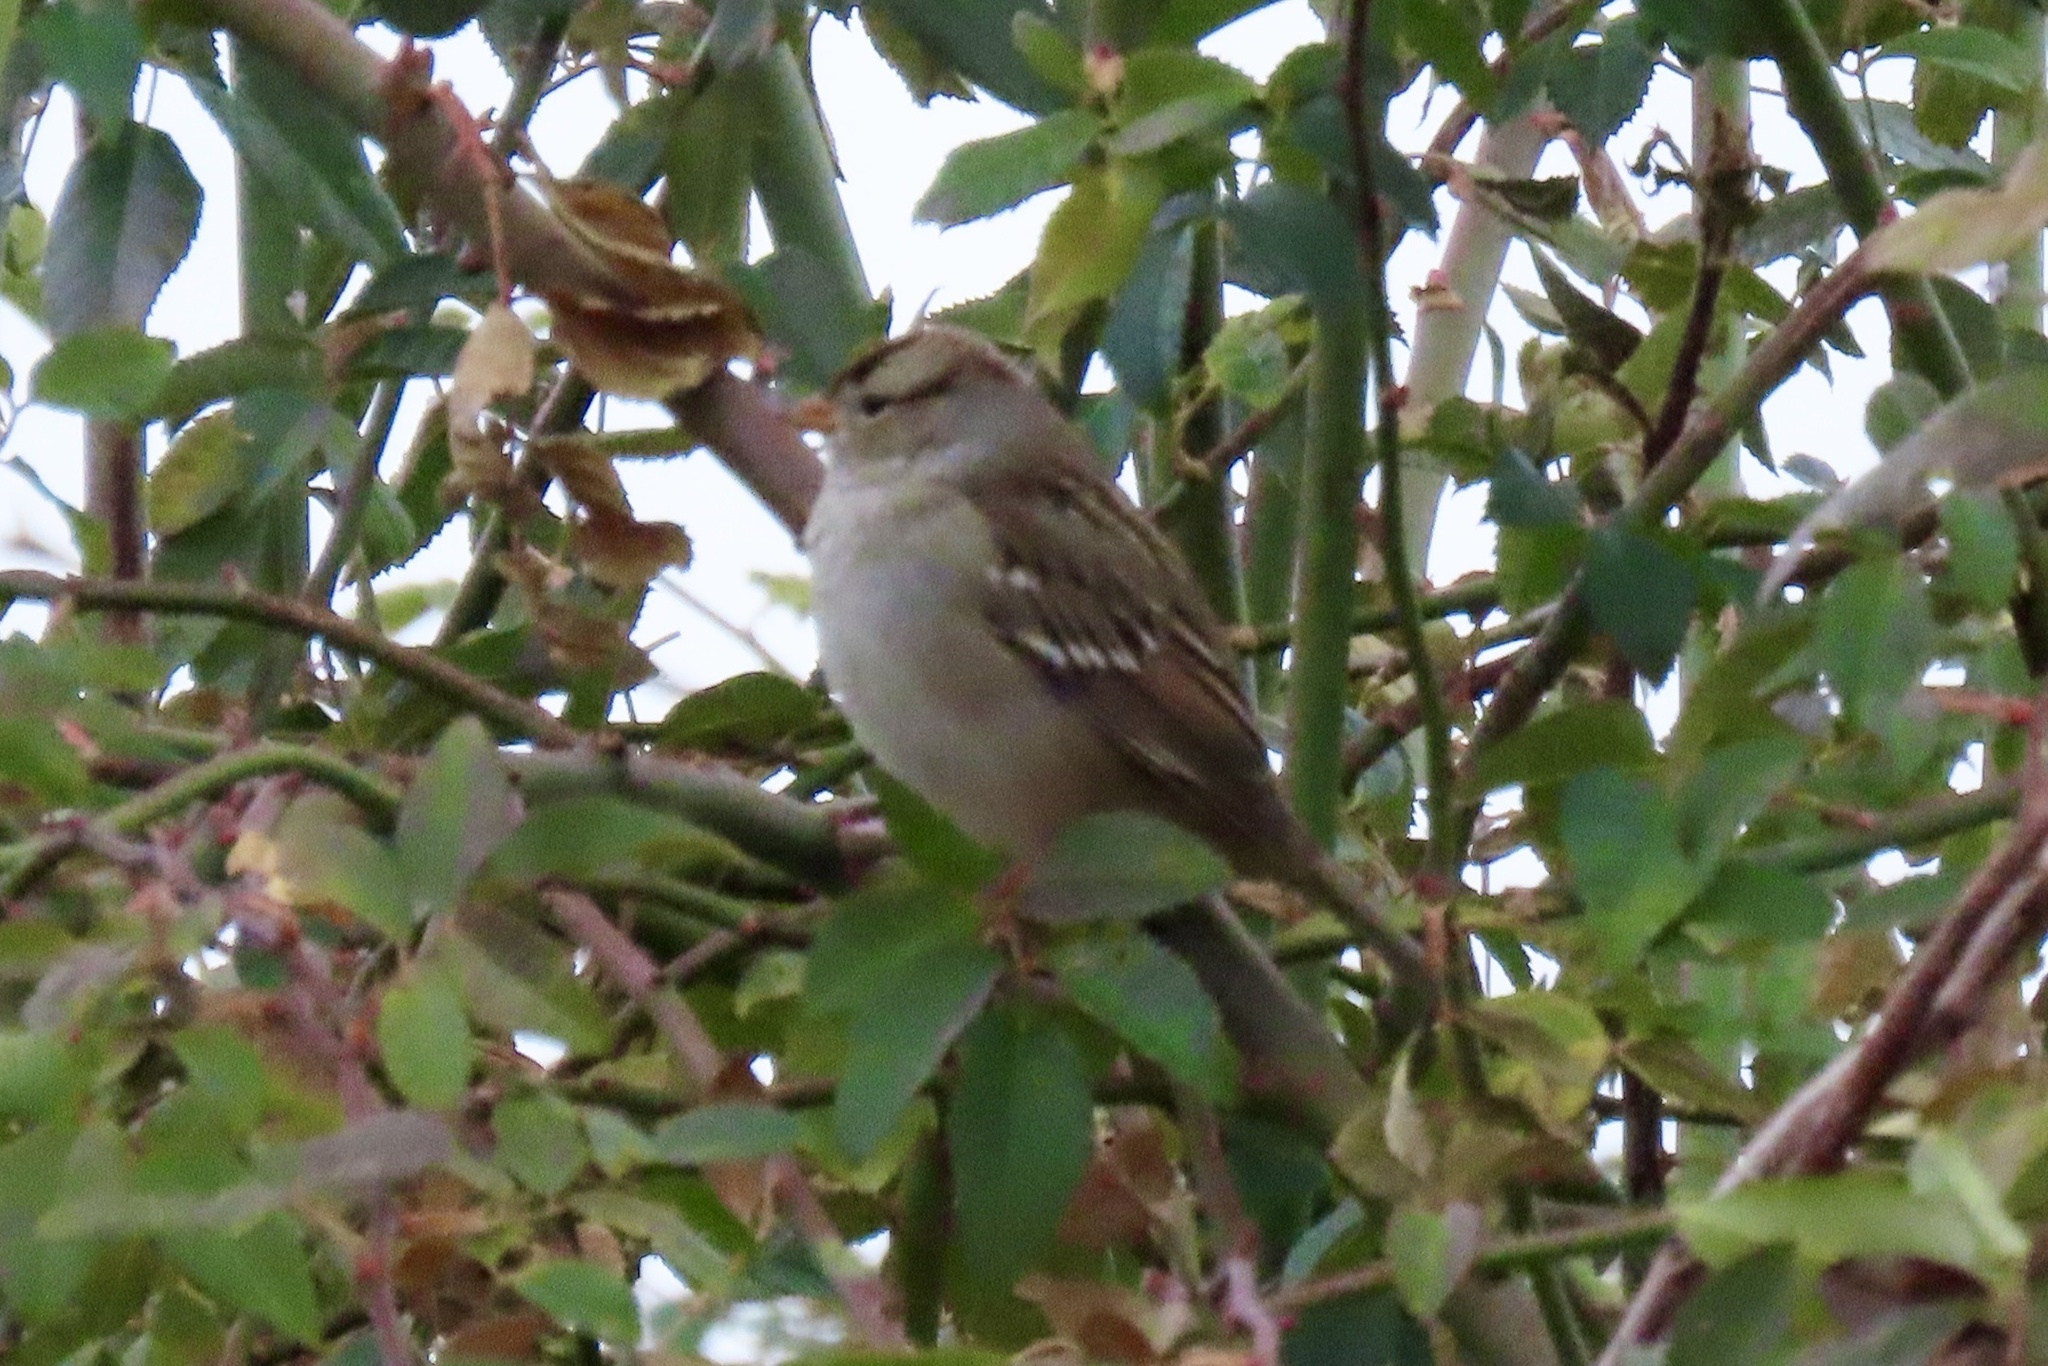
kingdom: Animalia
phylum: Chordata
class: Aves
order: Passeriformes
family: Passerellidae
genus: Zonotrichia
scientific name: Zonotrichia leucophrys
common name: White-crowned sparrow
